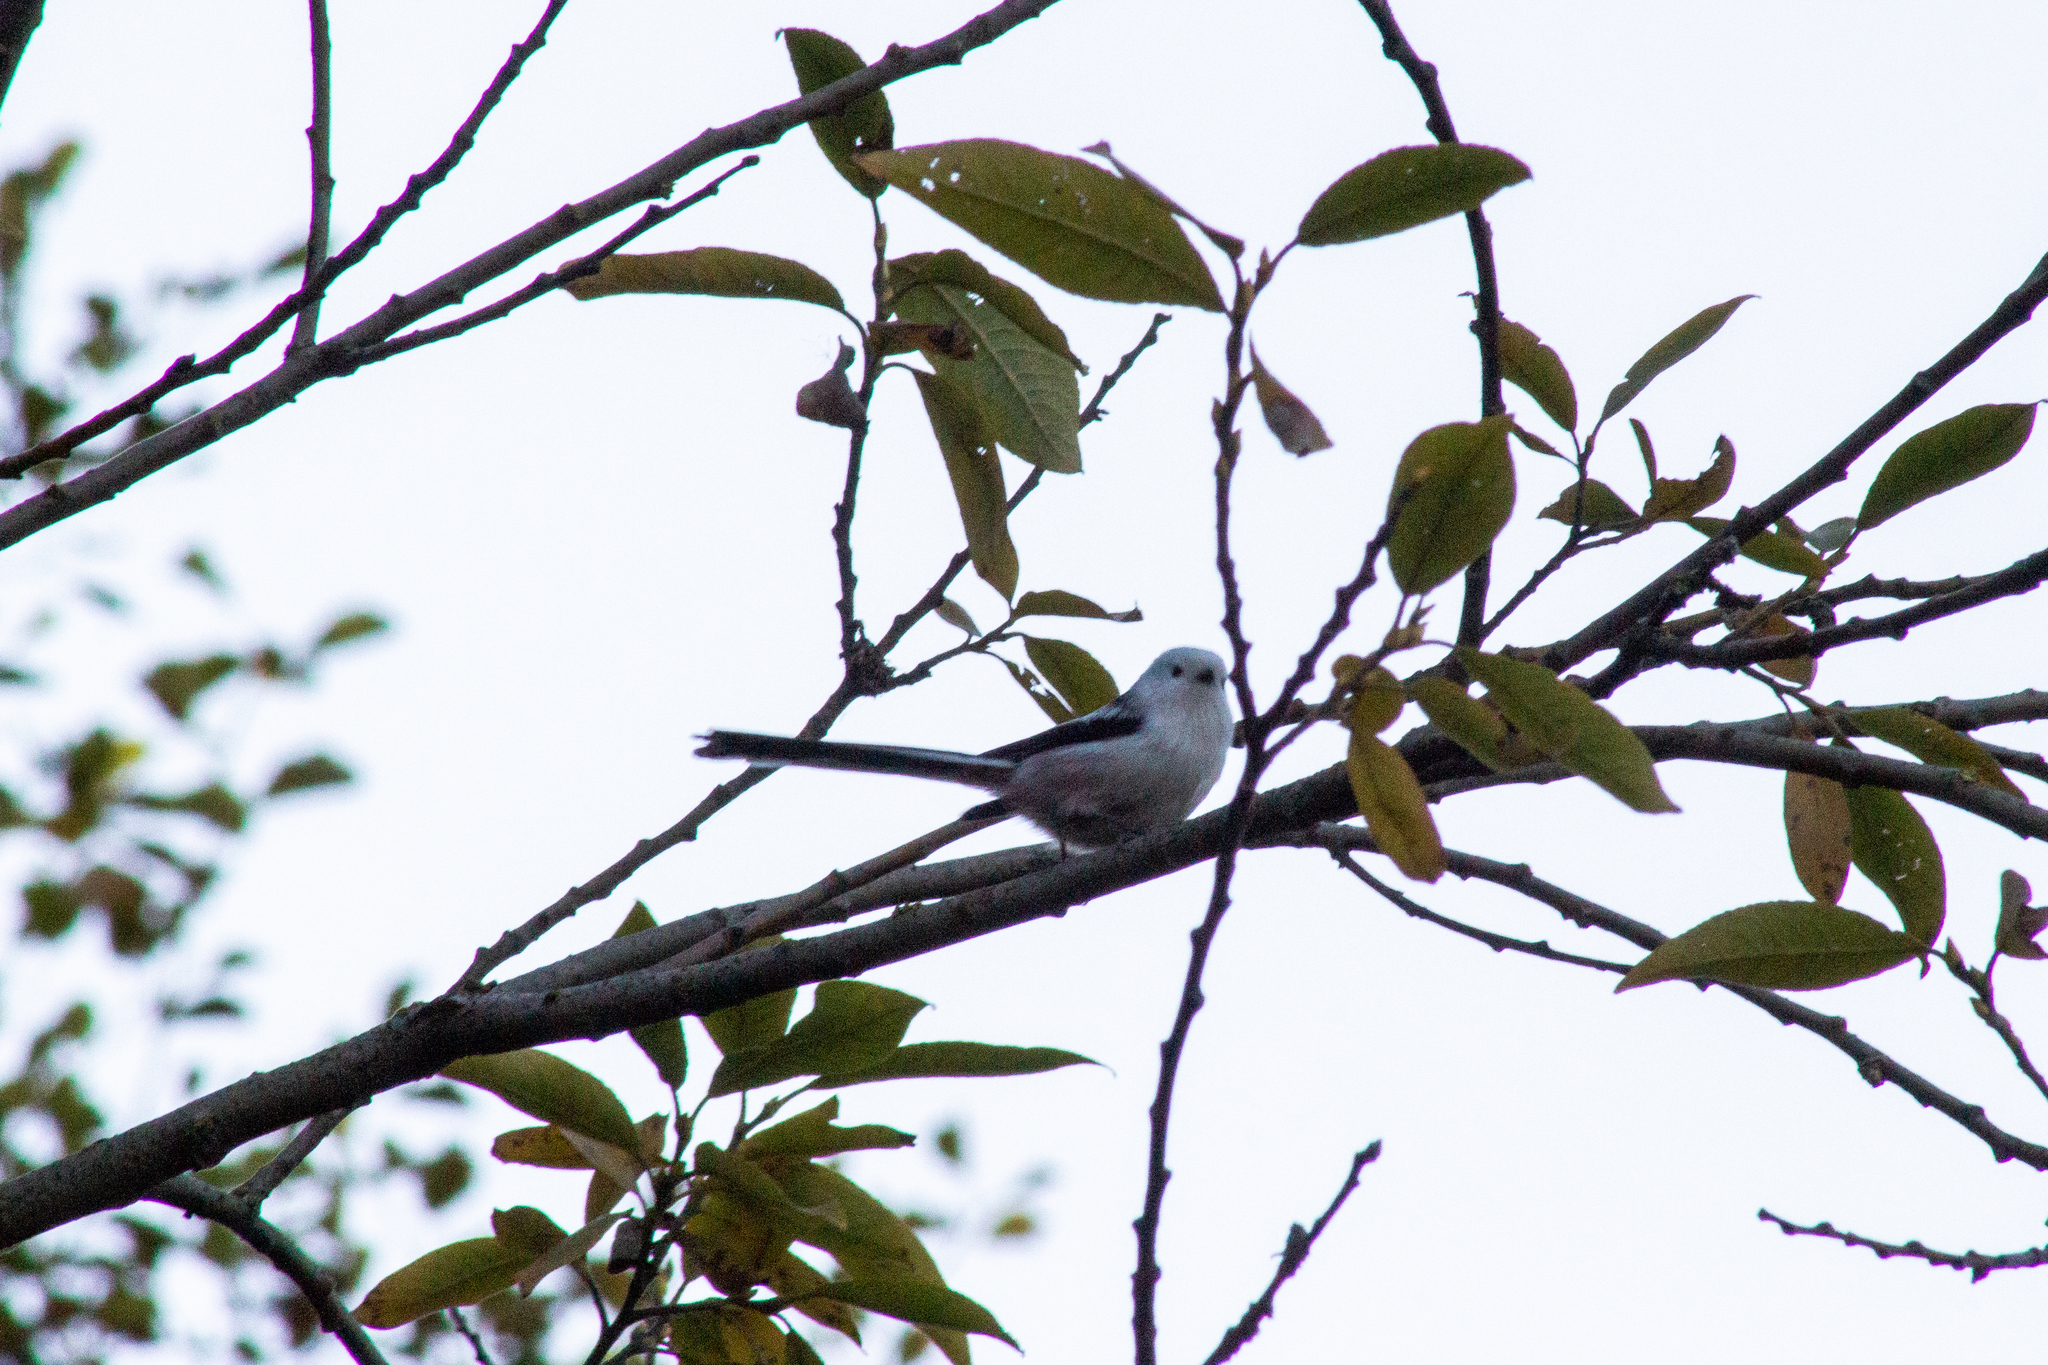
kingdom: Animalia
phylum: Chordata
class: Aves
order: Passeriformes
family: Aegithalidae
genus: Aegithalos
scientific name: Aegithalos caudatus
